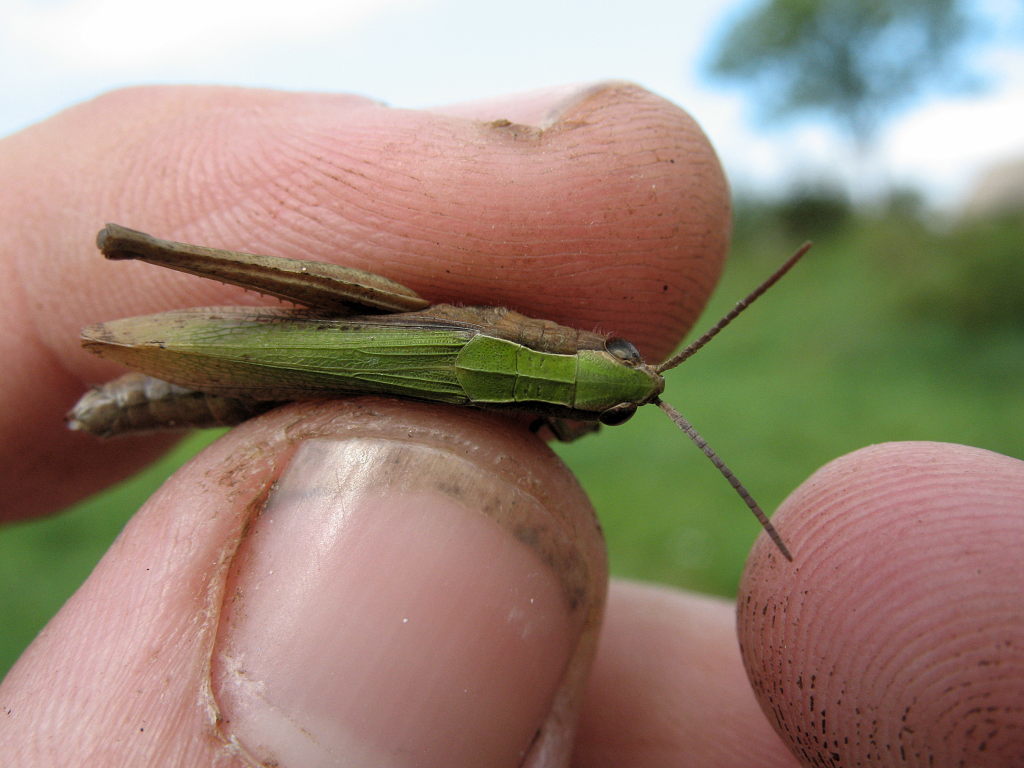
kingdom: Animalia
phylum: Arthropoda
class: Insecta
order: Orthoptera
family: Acrididae
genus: Chorthippus
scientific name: Chorthippus dorsatus
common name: Steppe grasshopper
